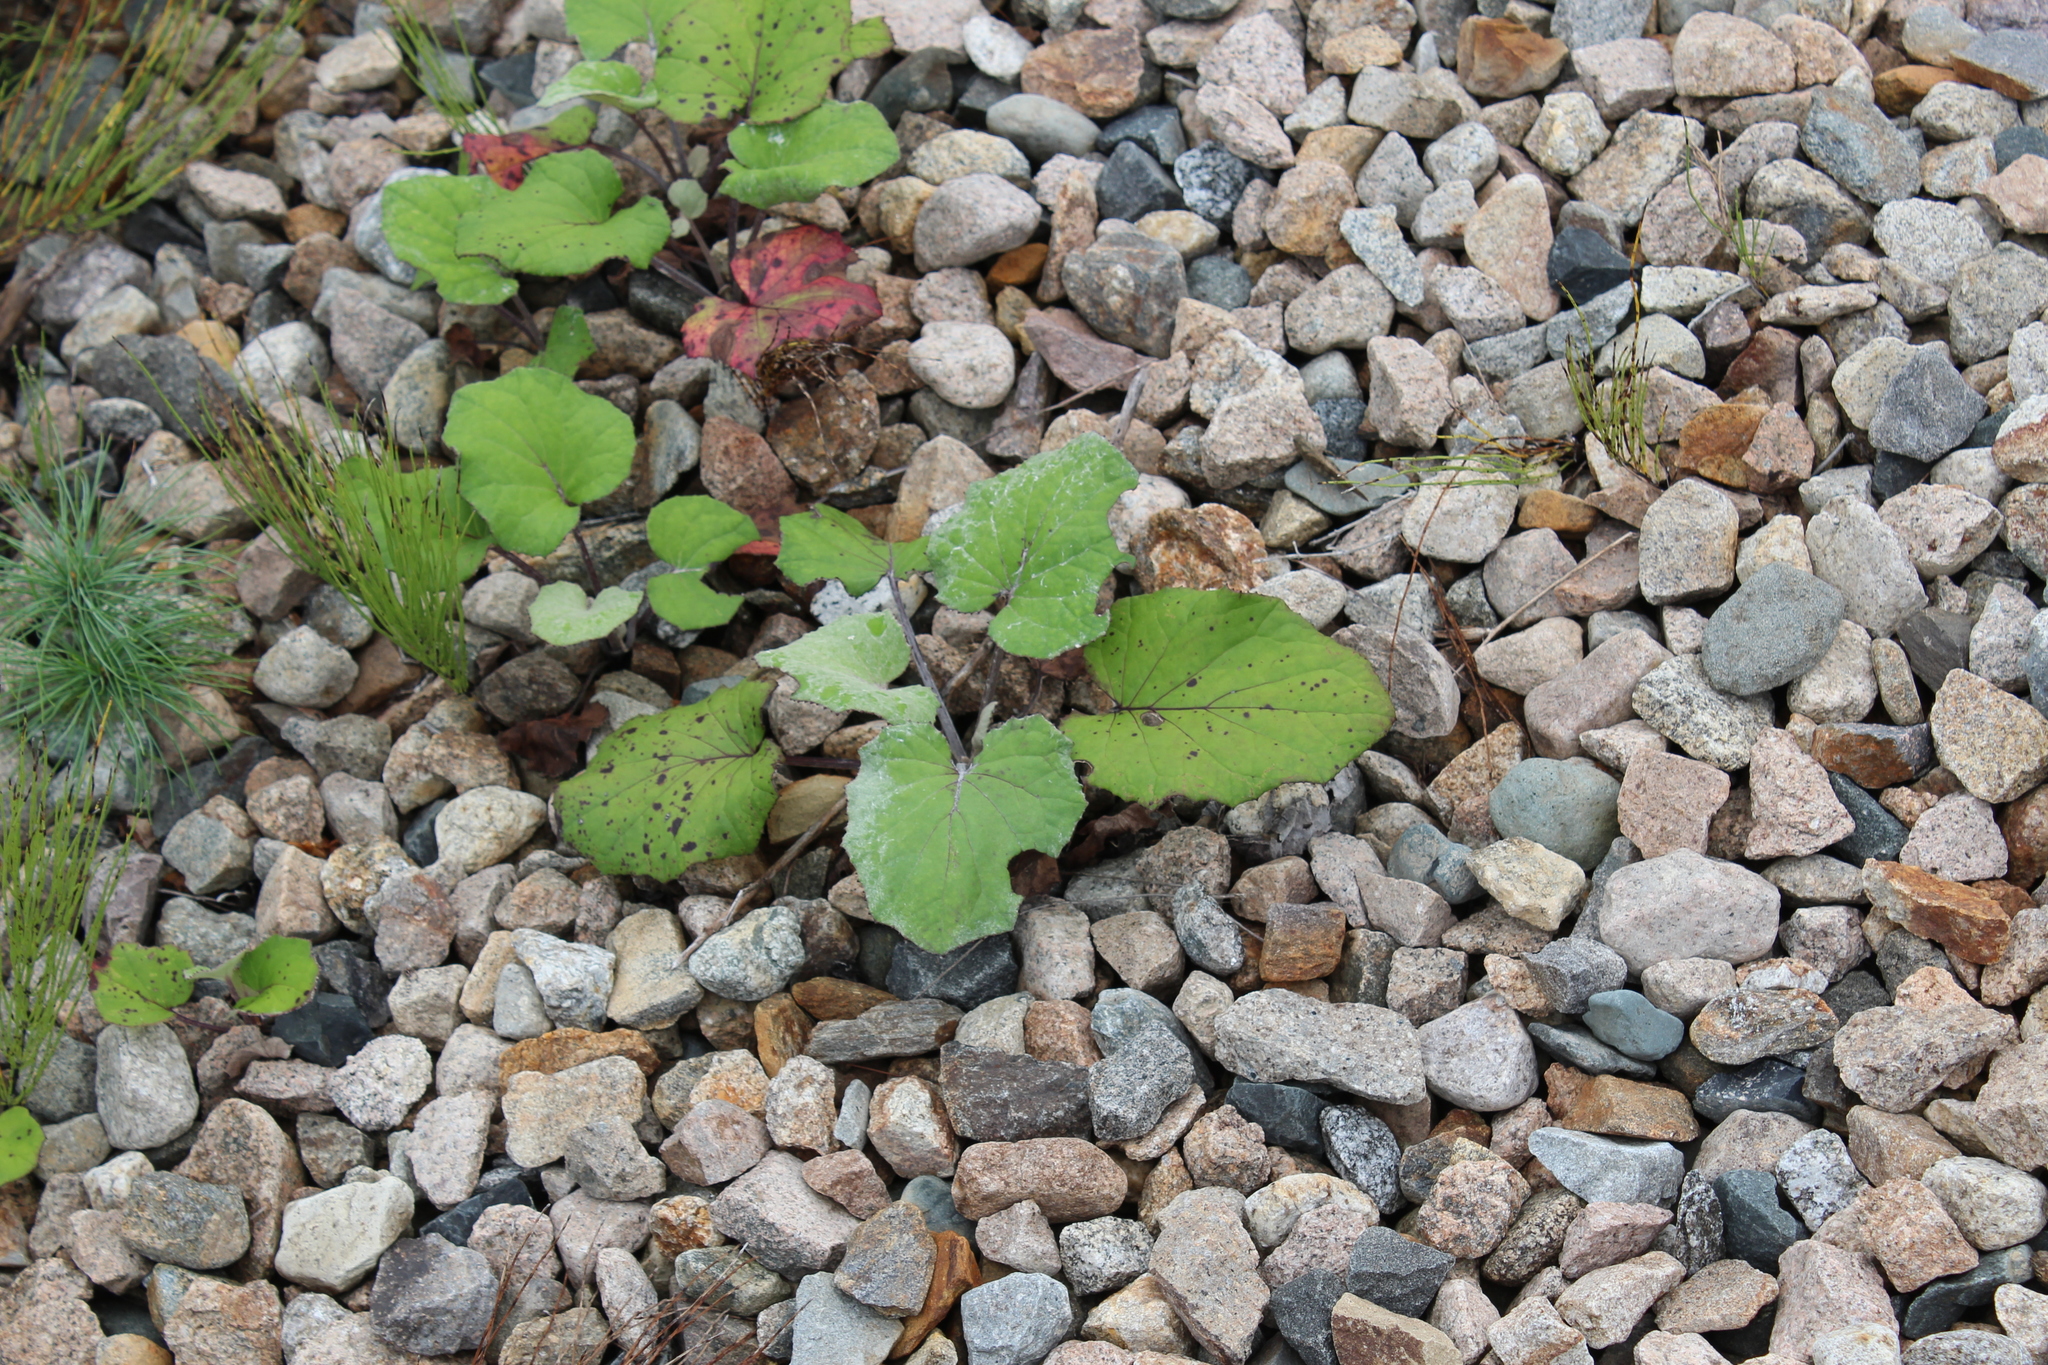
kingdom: Plantae
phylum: Tracheophyta
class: Magnoliopsida
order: Asterales
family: Asteraceae
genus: Tussilago
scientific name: Tussilago farfara
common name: Coltsfoot
